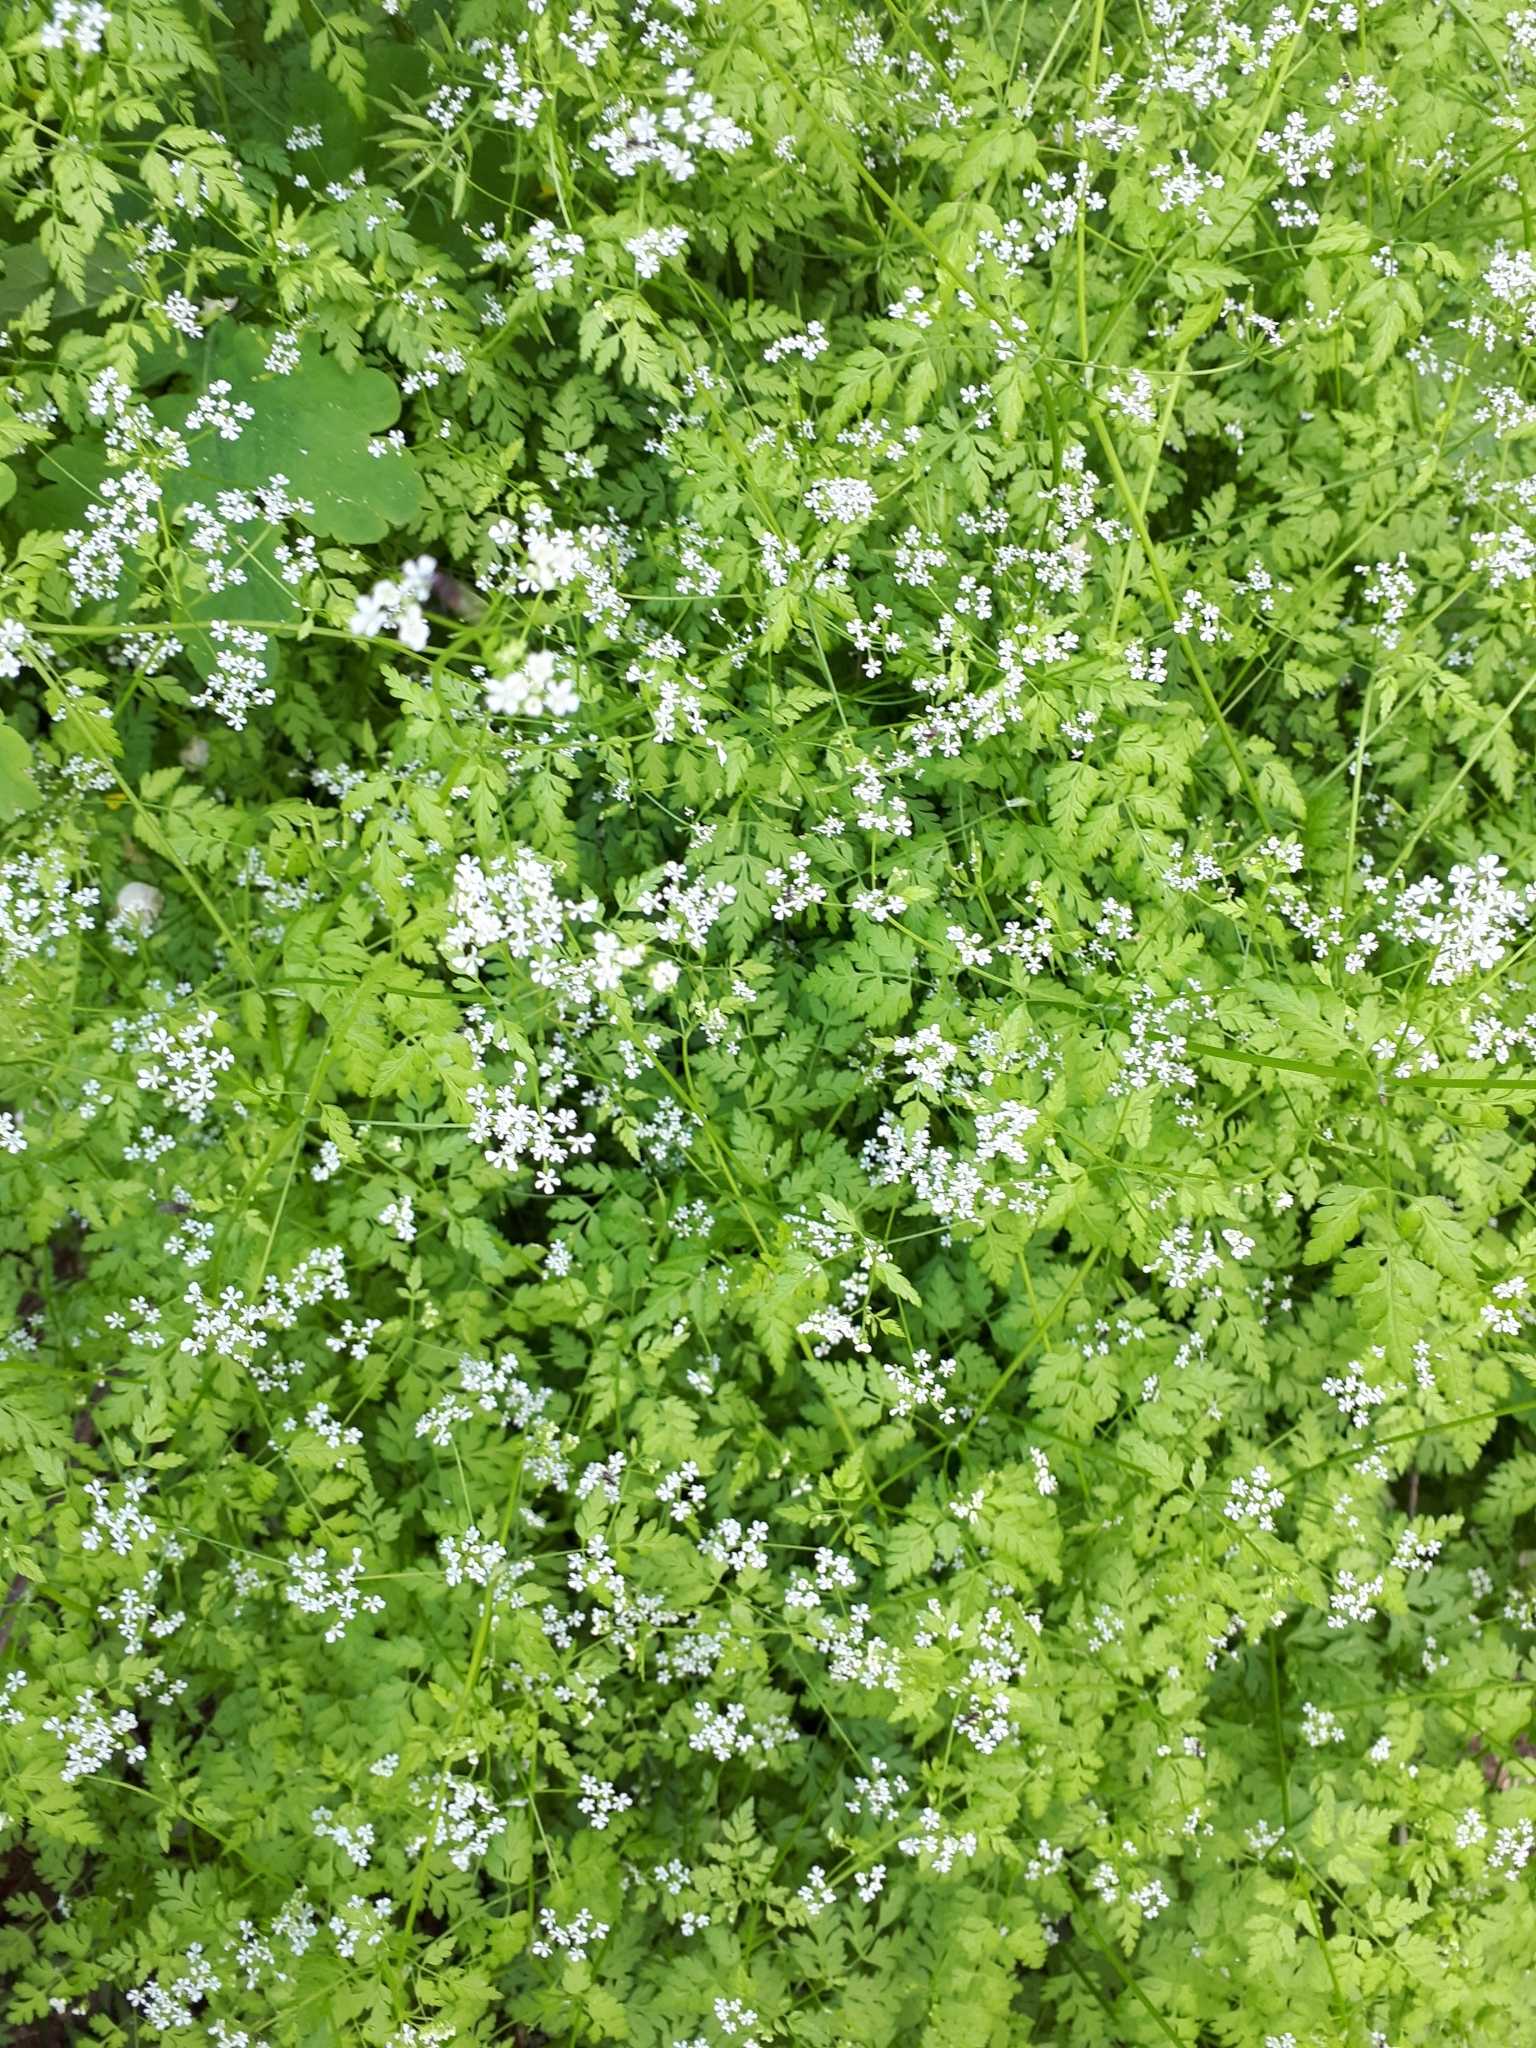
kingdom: Plantae
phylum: Tracheophyta
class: Magnoliopsida
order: Apiales
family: Apiaceae
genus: Anthriscus
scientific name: Anthriscus cerefolium
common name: Garden chervil
